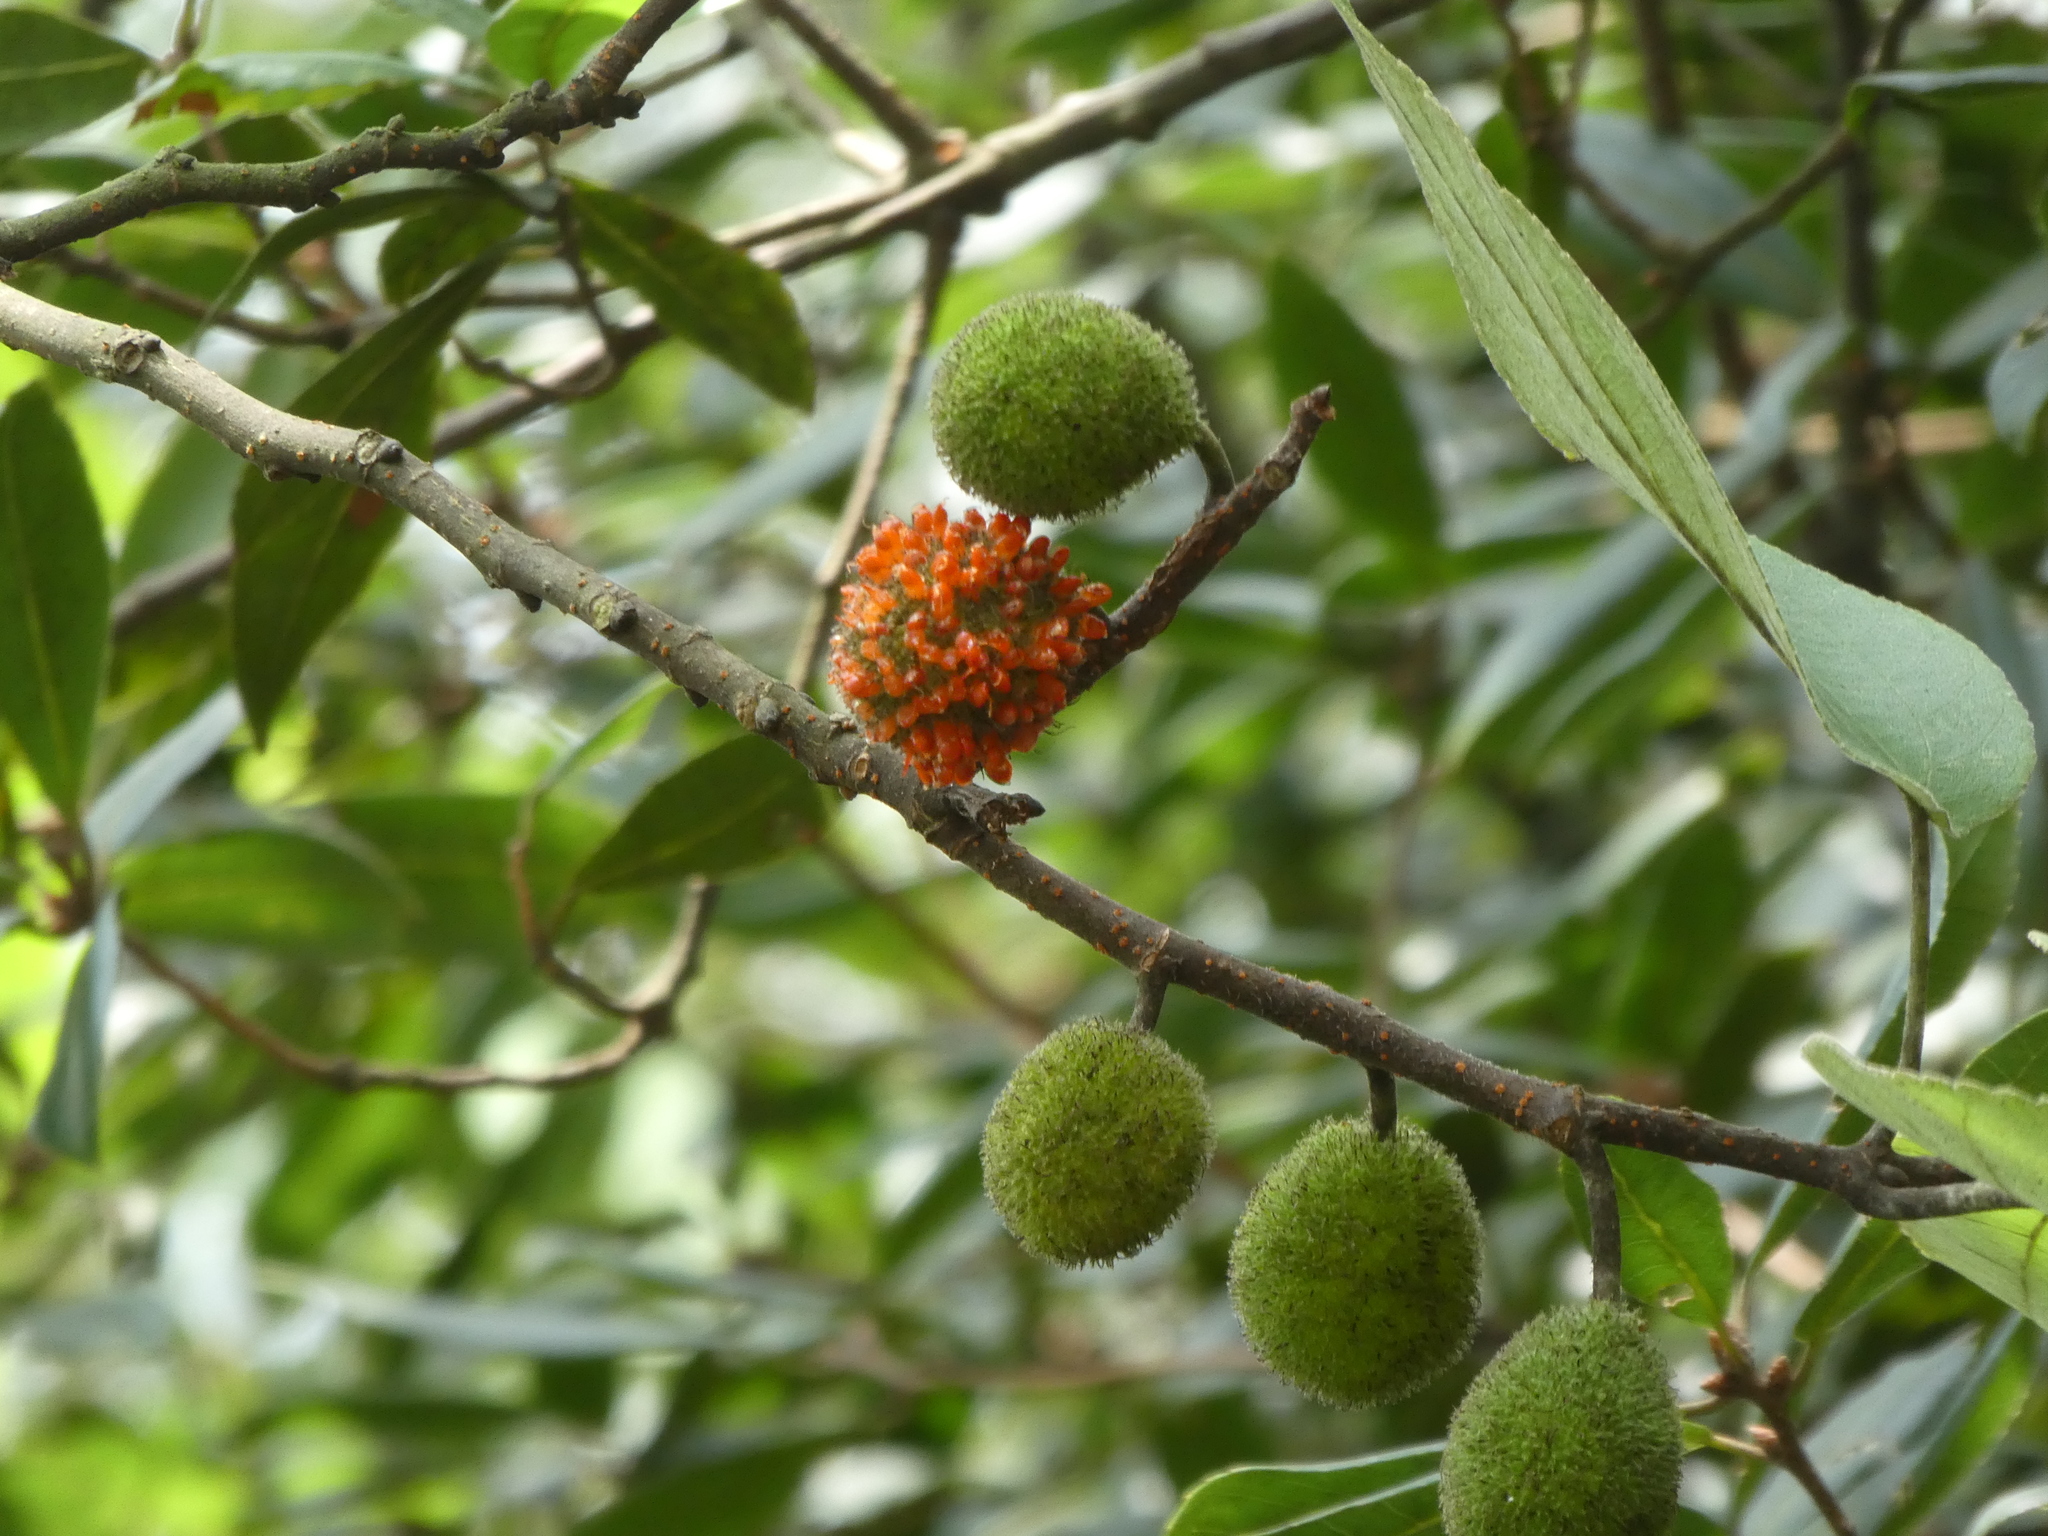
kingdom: Plantae
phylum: Tracheophyta
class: Magnoliopsida
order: Rosales
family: Moraceae
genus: Broussonetia
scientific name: Broussonetia papyrifera
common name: Paper mulberry
